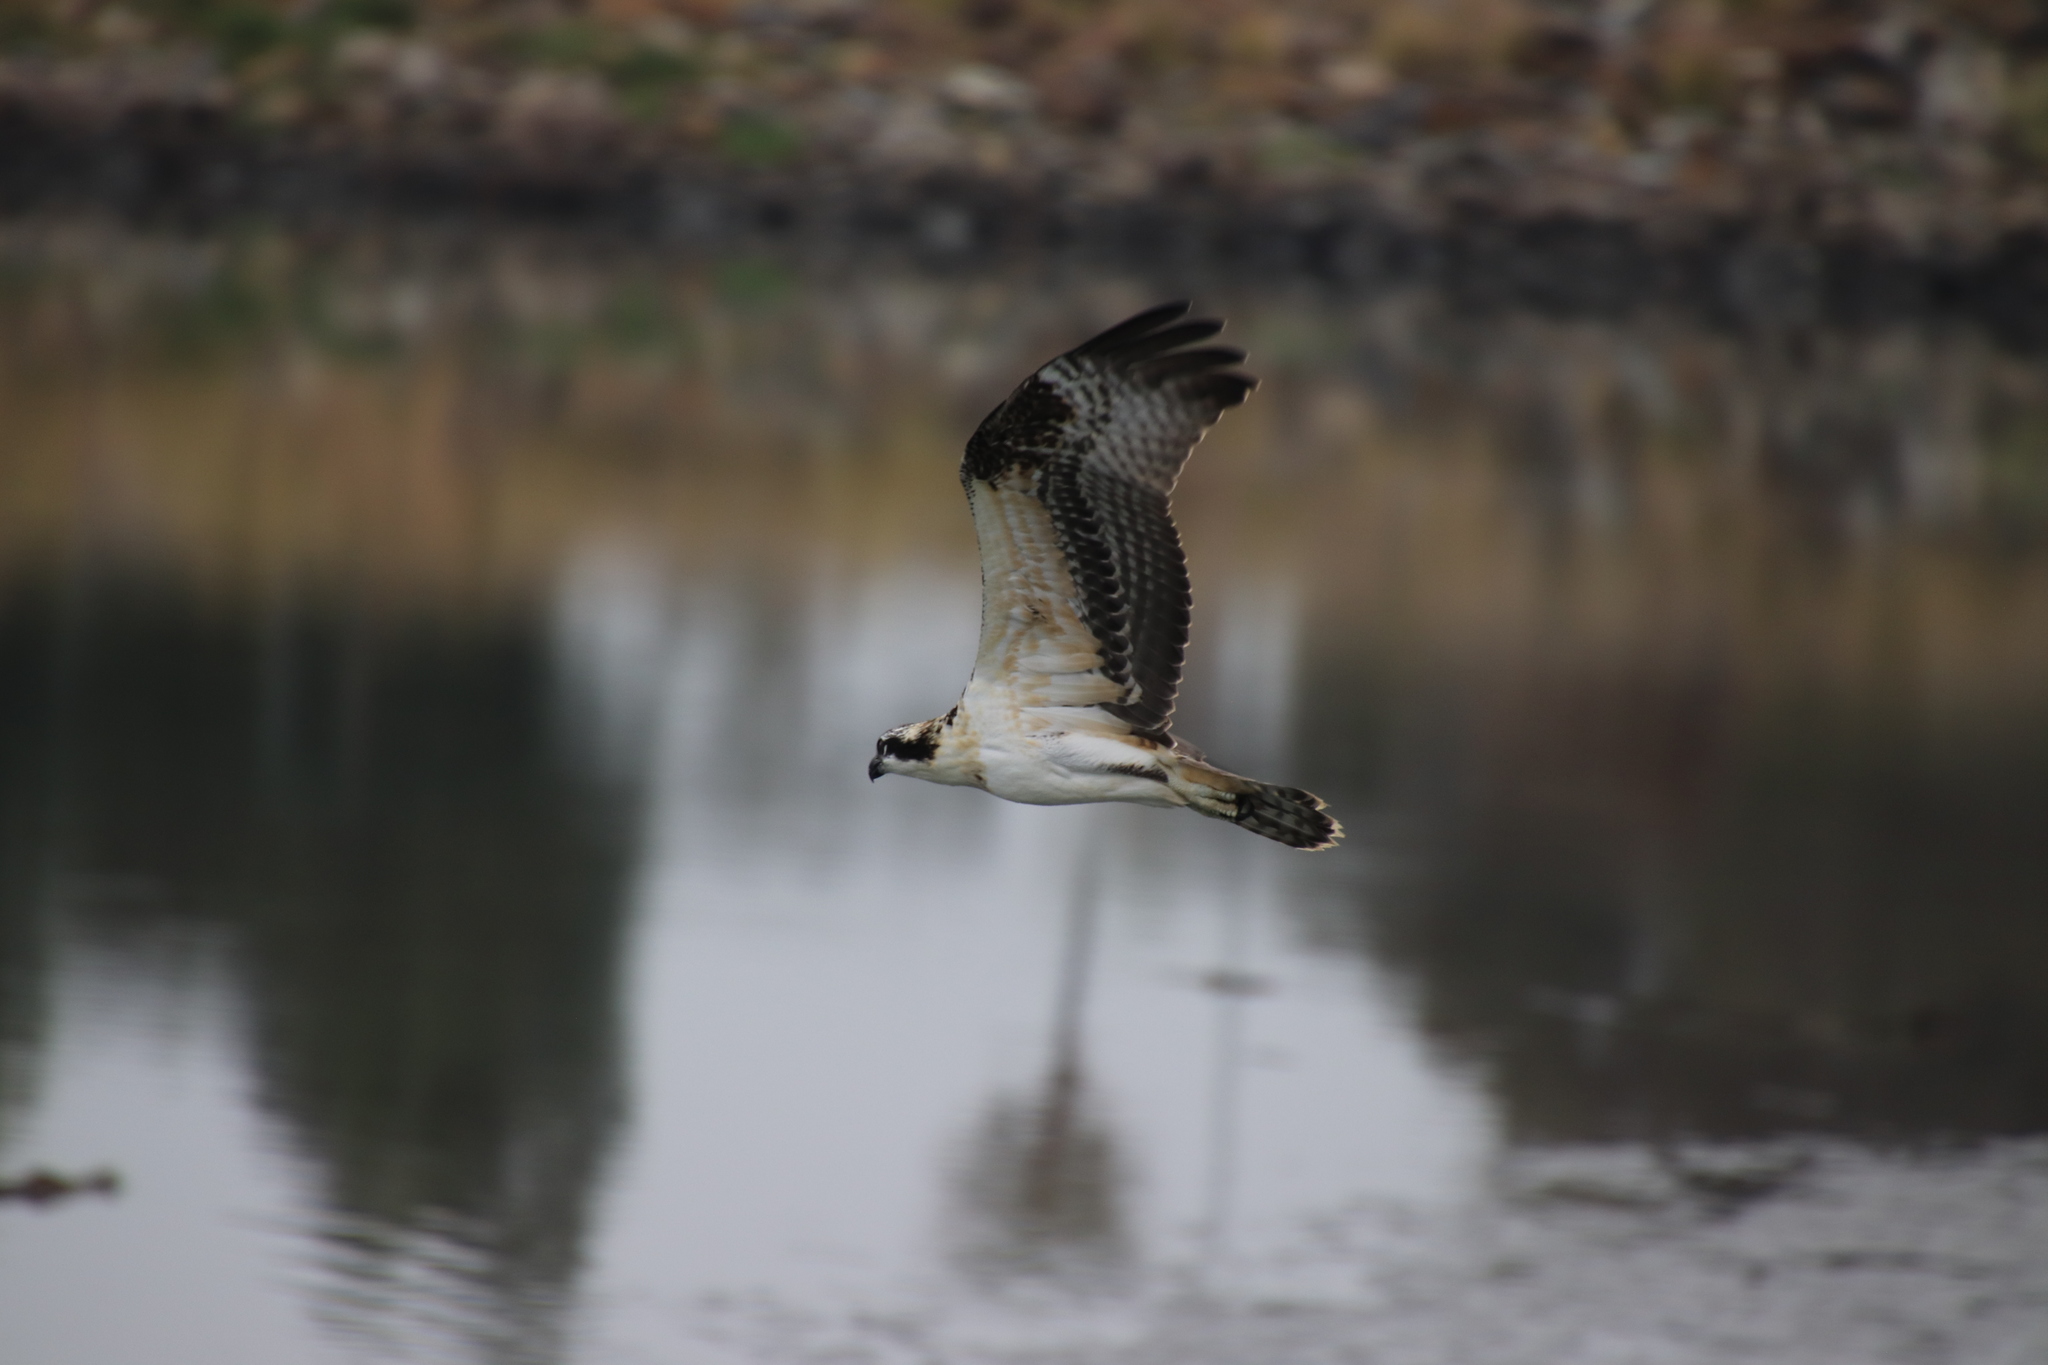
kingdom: Animalia
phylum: Chordata
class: Aves
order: Accipitriformes
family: Pandionidae
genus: Pandion
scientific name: Pandion haliaetus
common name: Osprey
